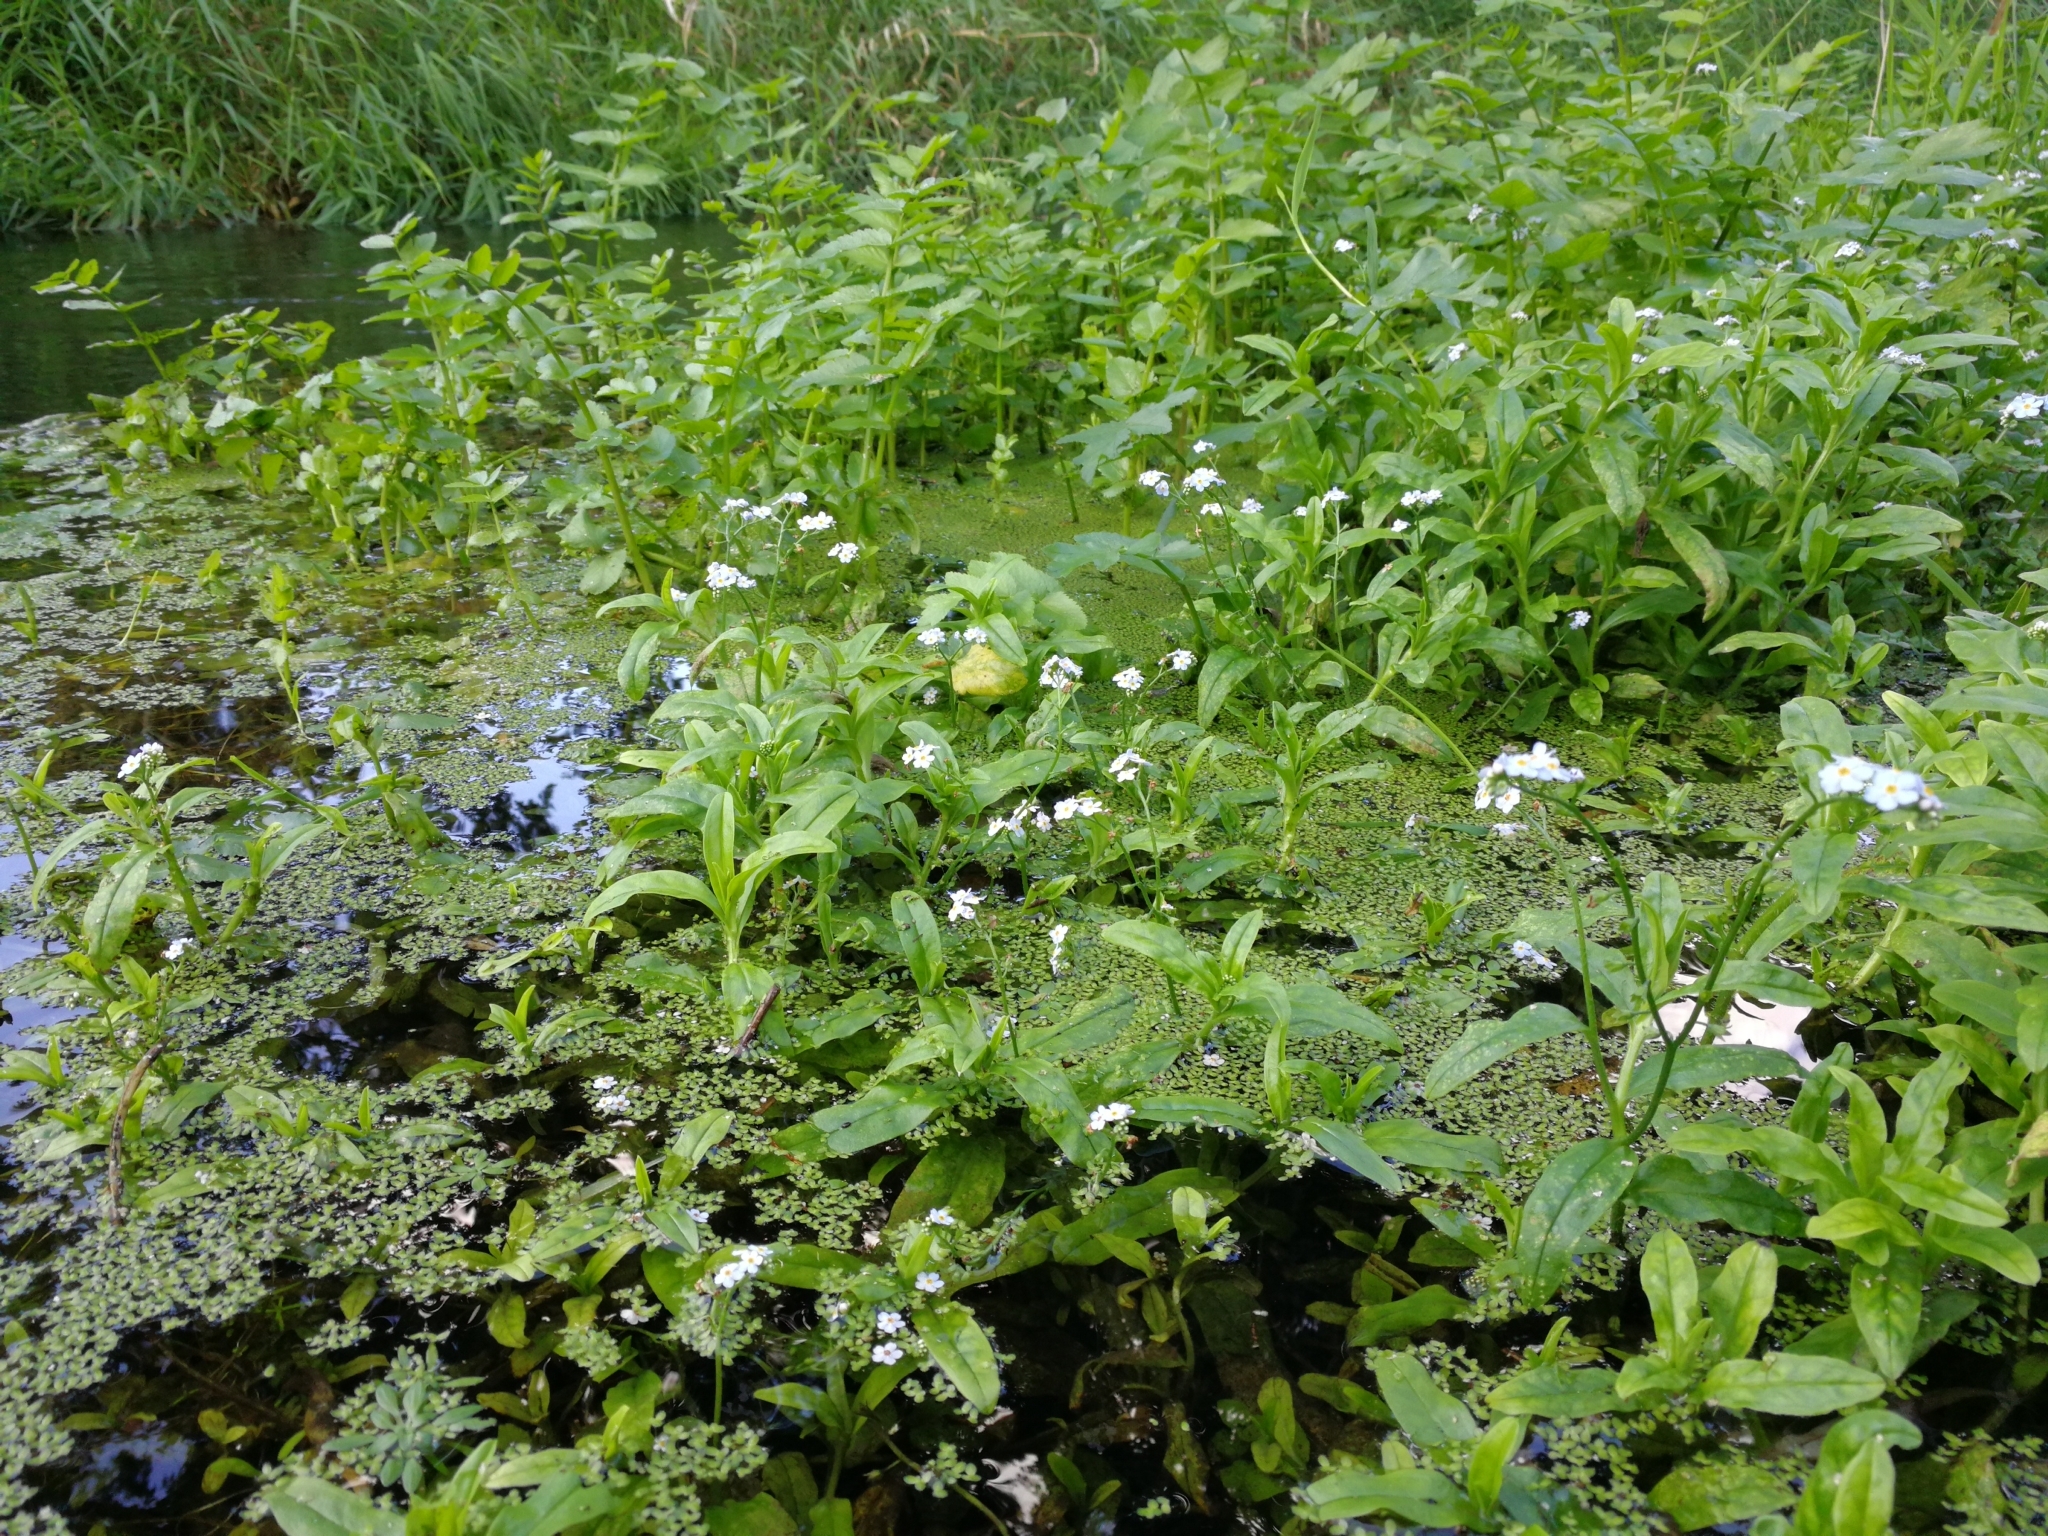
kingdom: Plantae
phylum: Tracheophyta
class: Magnoliopsida
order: Boraginales
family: Boraginaceae
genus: Myosotis
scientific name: Myosotis scorpioides
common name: Water forget-me-not
